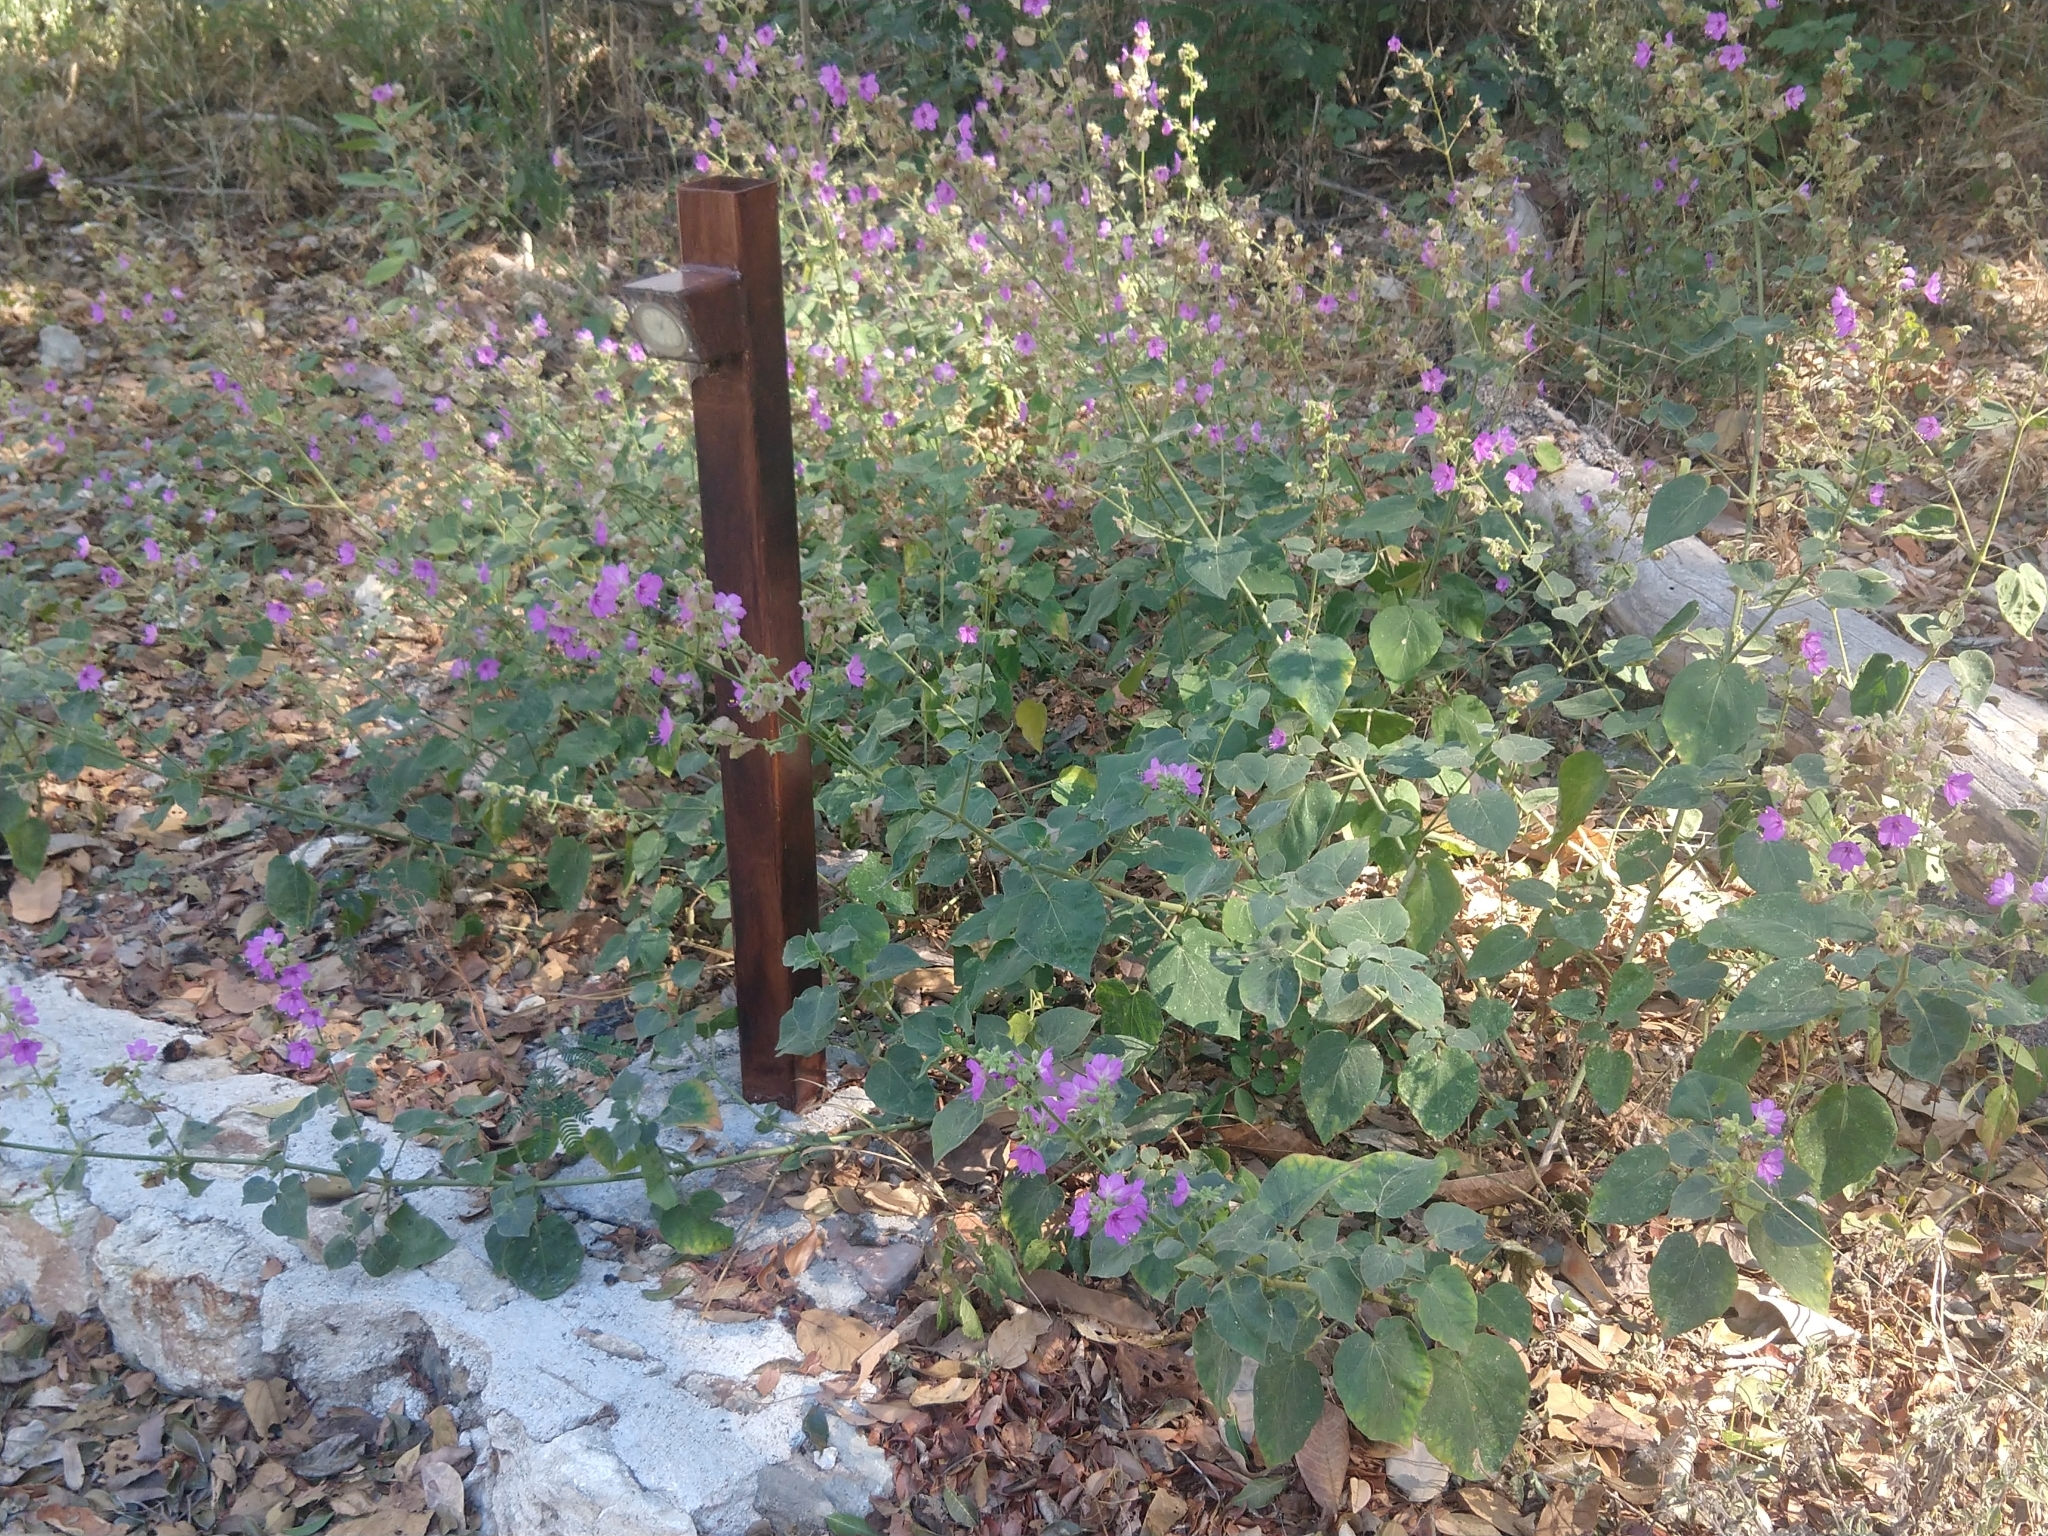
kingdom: Plantae
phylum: Tracheophyta
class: Magnoliopsida
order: Caryophyllales
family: Nyctaginaceae
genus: Mirabilis
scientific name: Mirabilis viscosa
